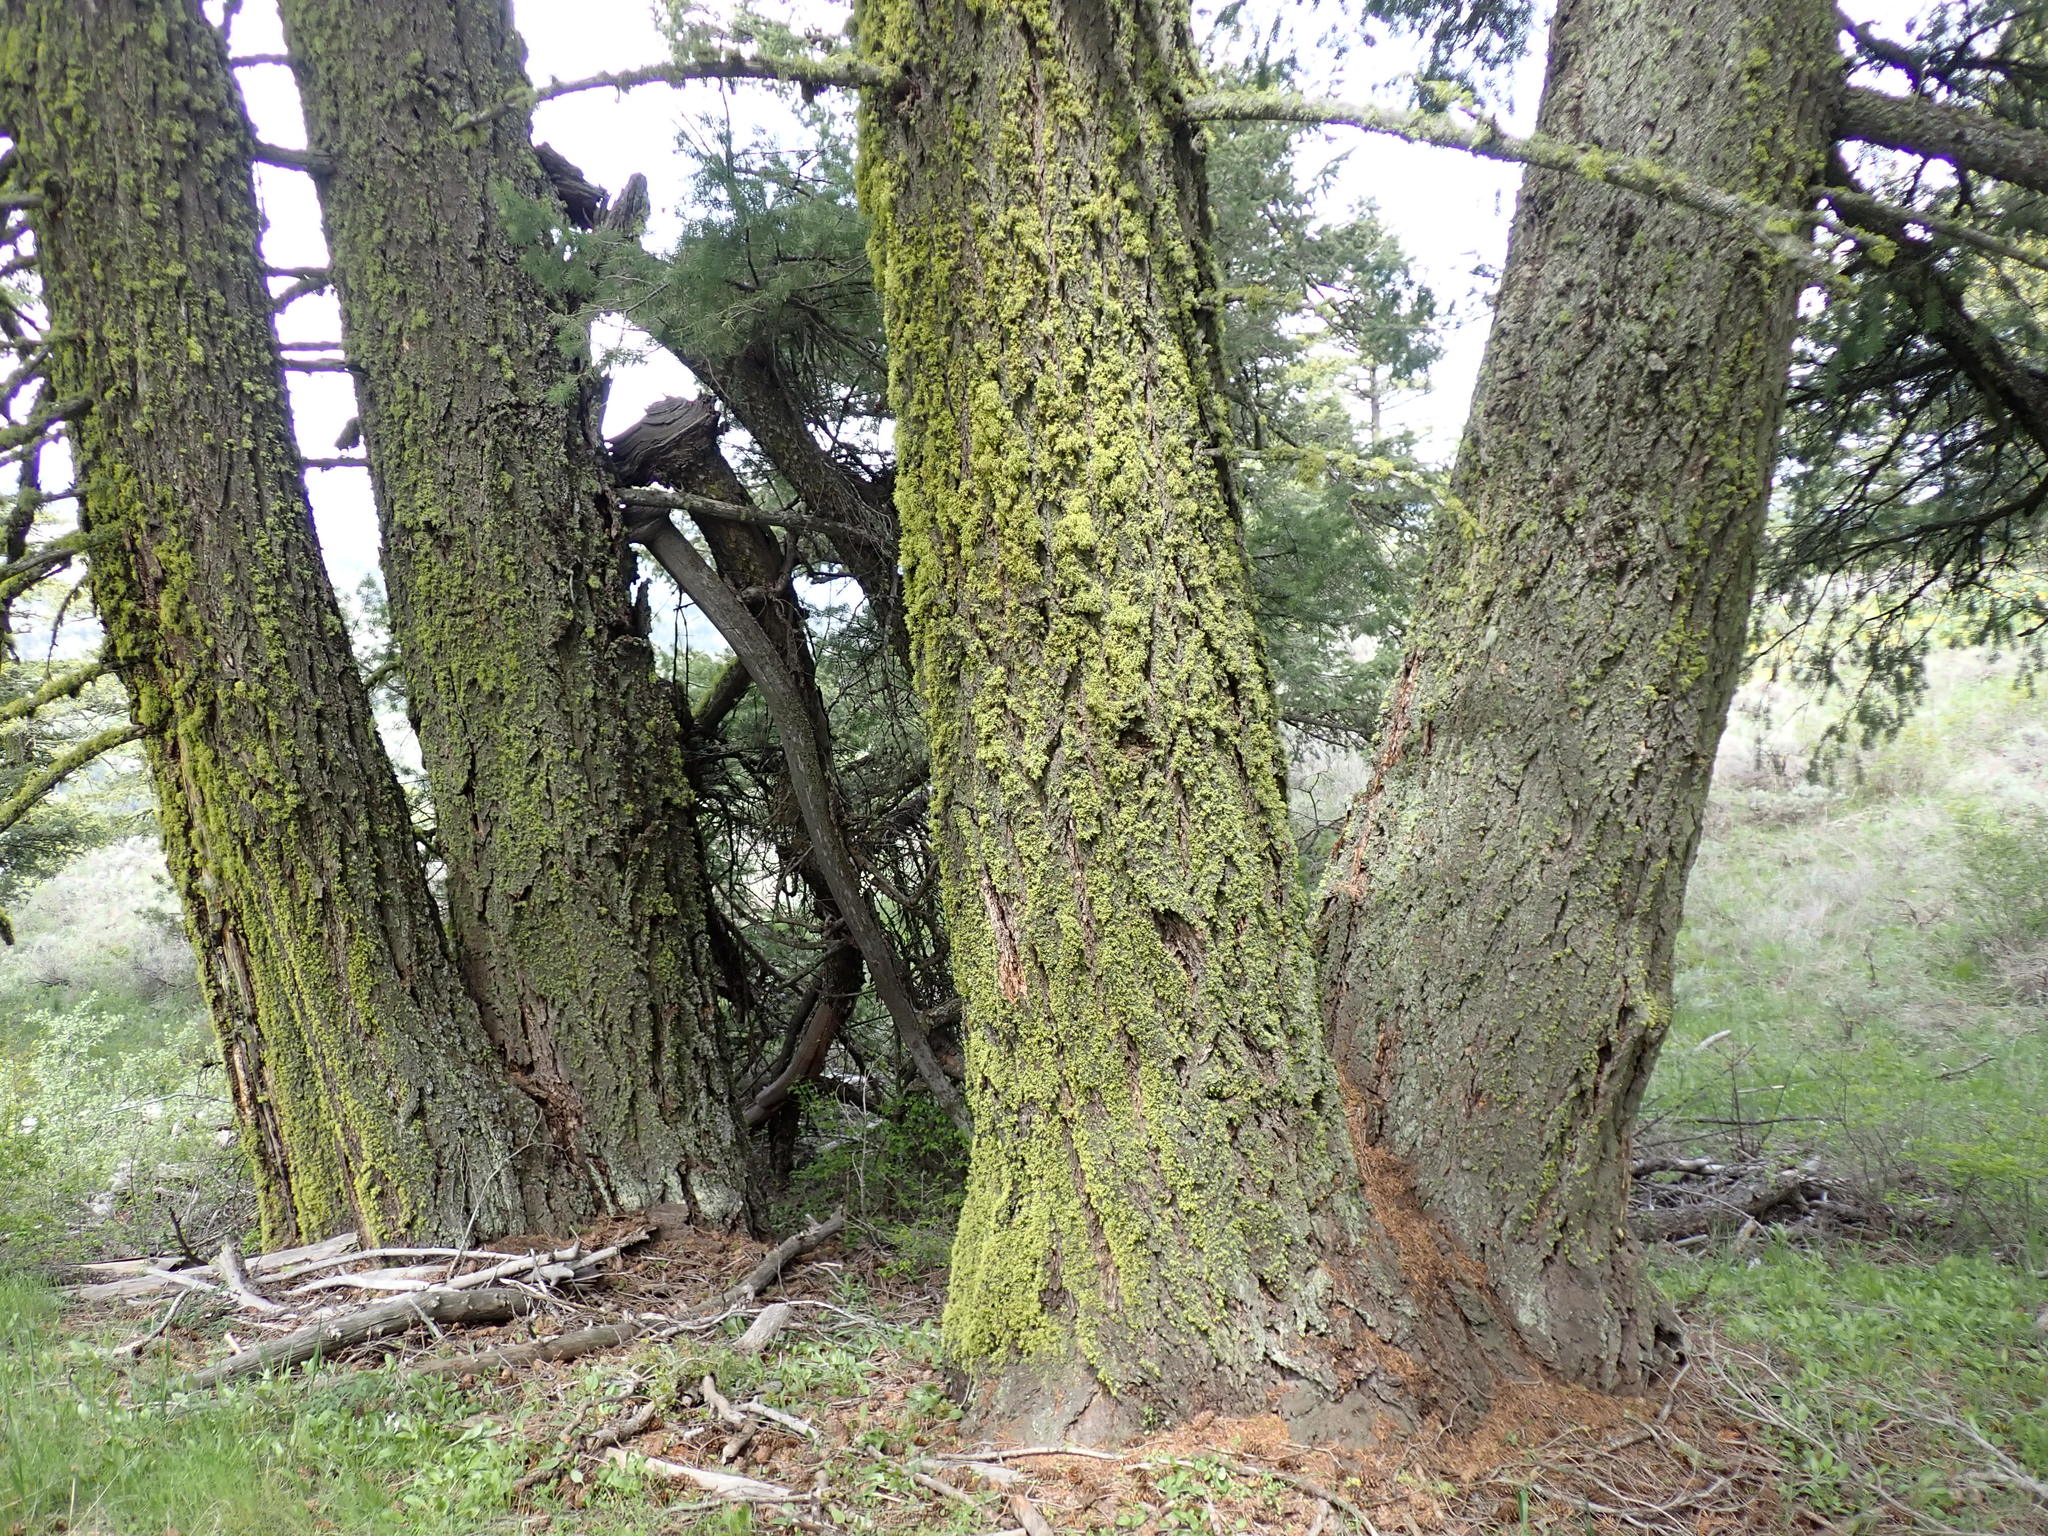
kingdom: Plantae
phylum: Tracheophyta
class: Pinopsida
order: Pinales
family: Pinaceae
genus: Pseudotsuga
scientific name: Pseudotsuga menziesii
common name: Douglas fir
